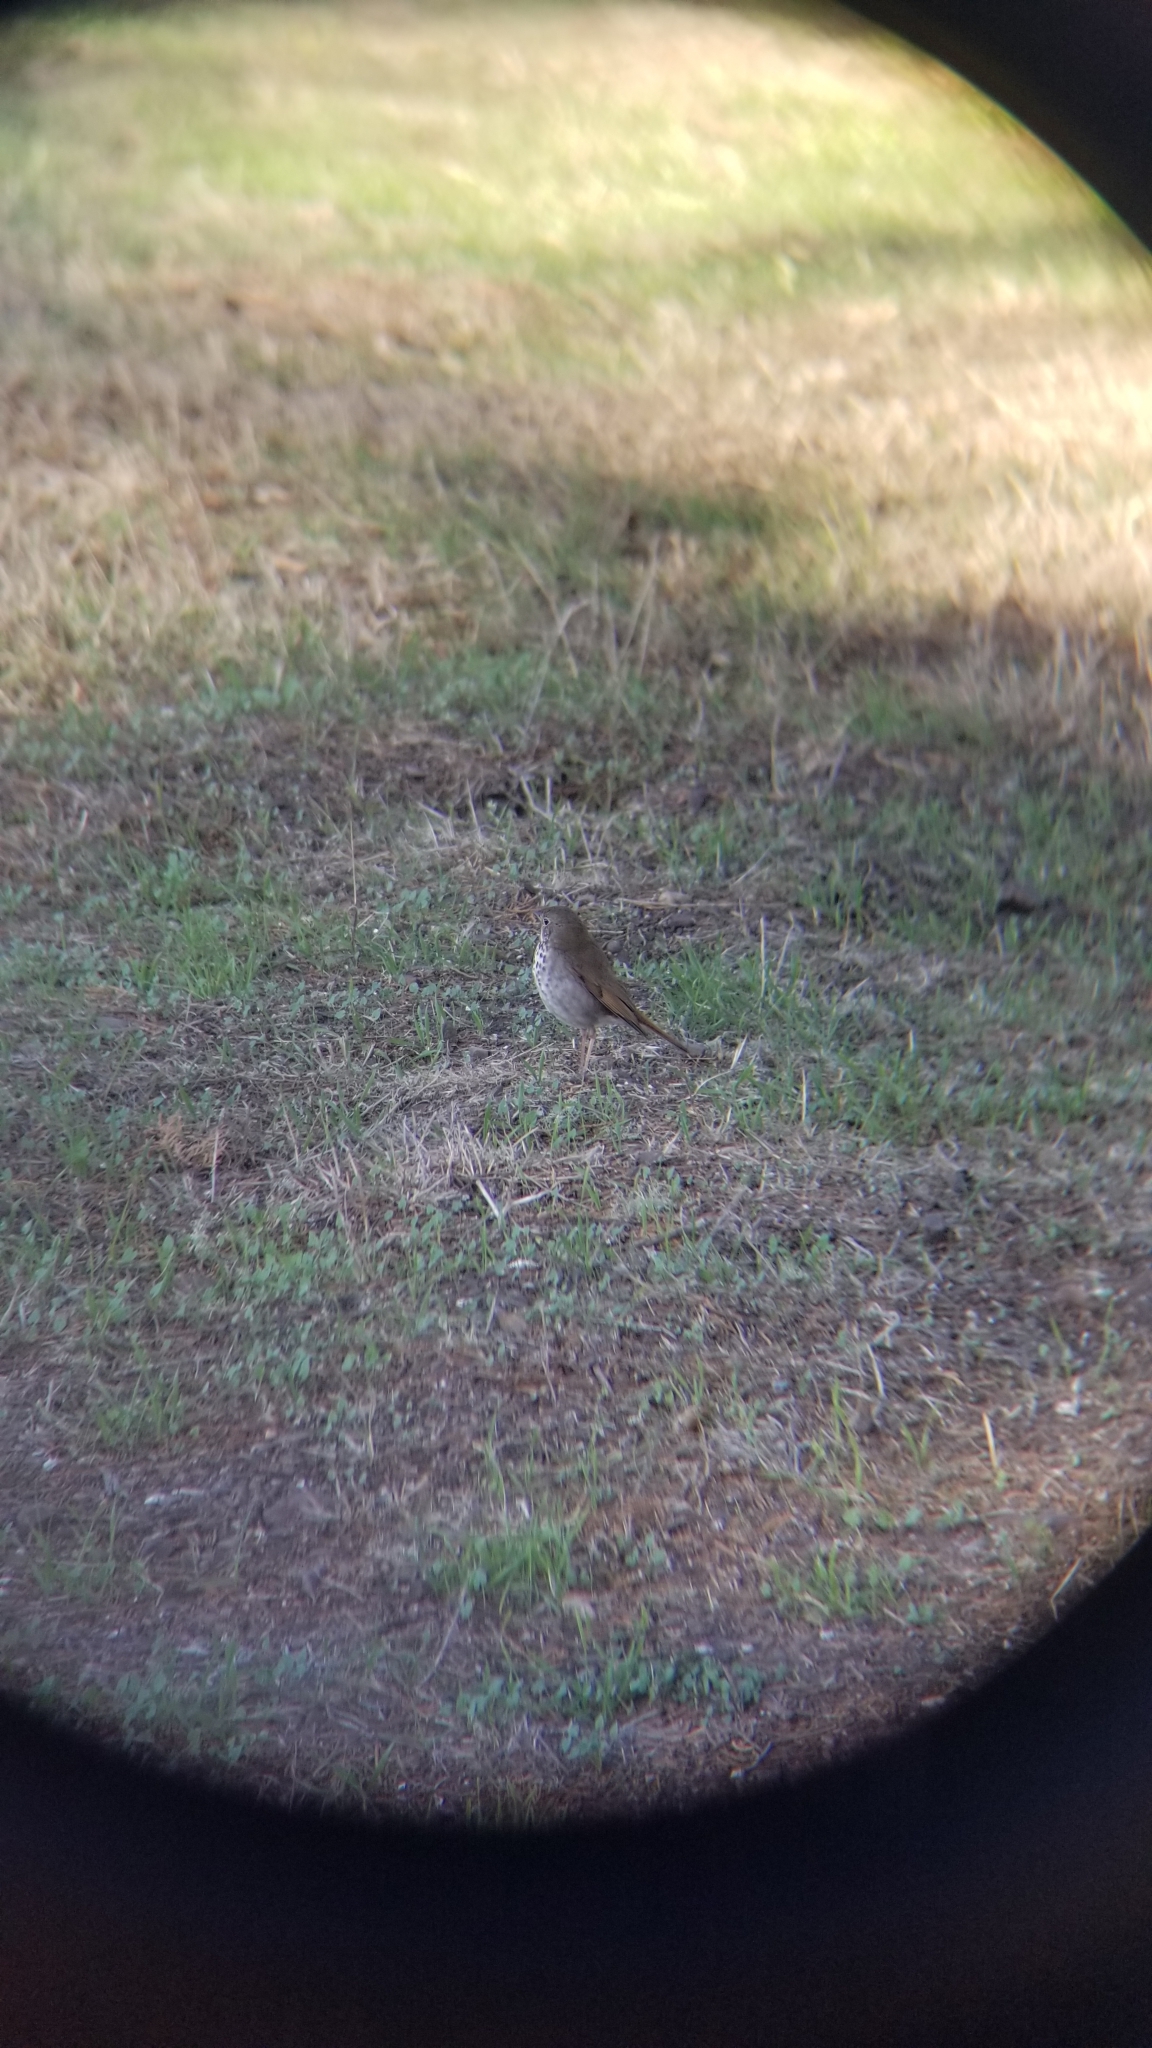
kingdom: Animalia
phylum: Chordata
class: Aves
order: Passeriformes
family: Turdidae
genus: Catharus
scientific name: Catharus guttatus
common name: Hermit thrush
